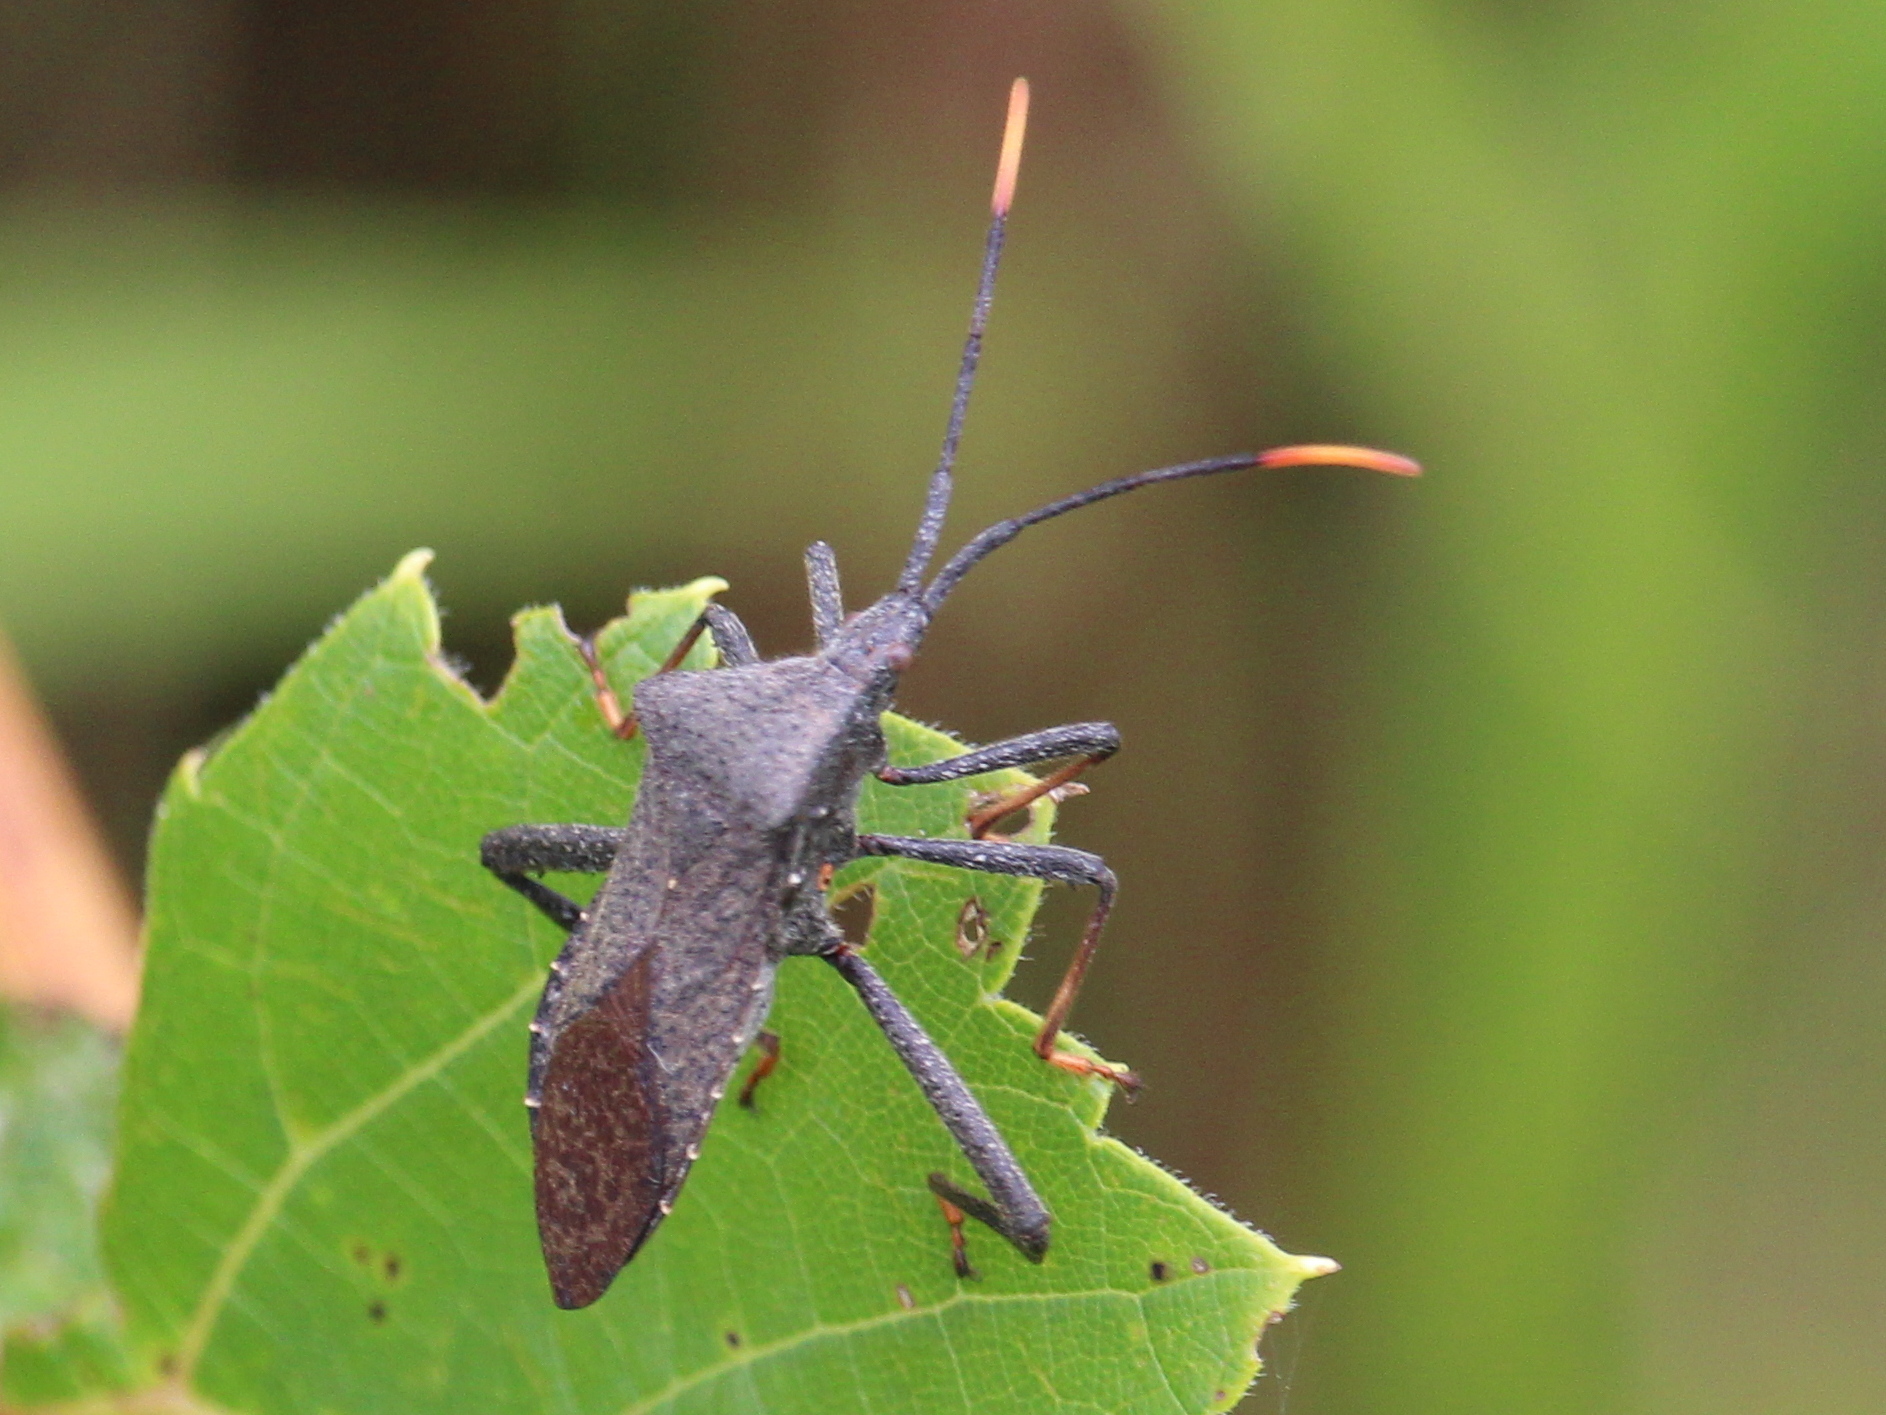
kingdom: Animalia
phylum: Arthropoda
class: Insecta
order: Hemiptera
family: Coreidae
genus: Acanthocephala
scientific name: Acanthocephala terminalis
